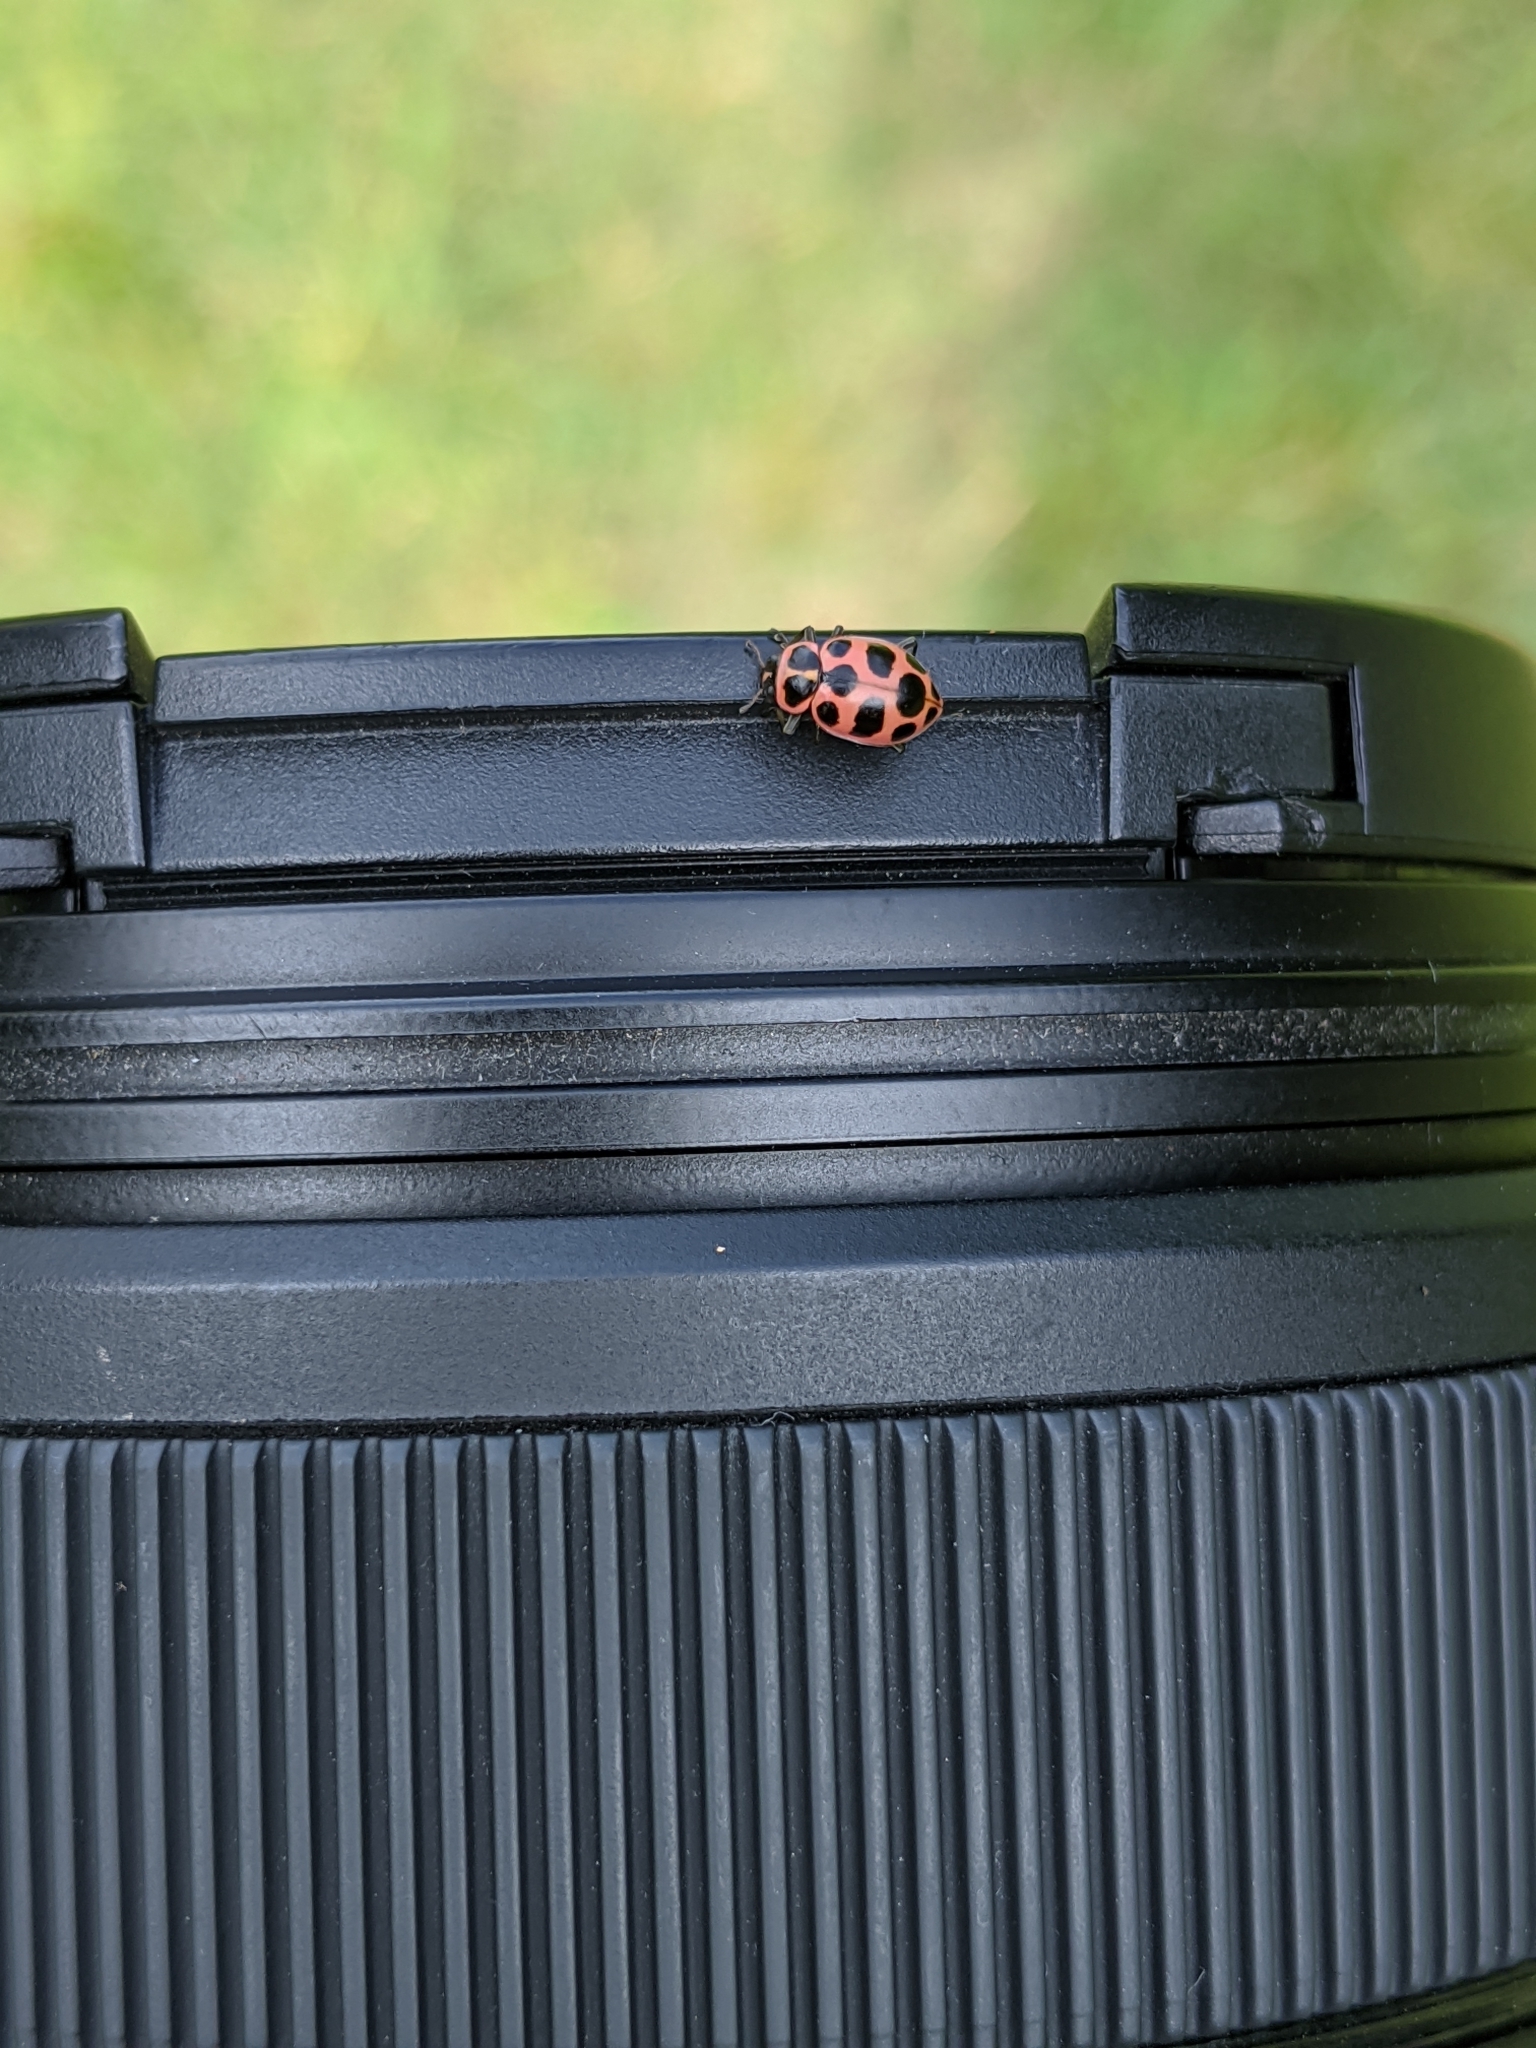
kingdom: Animalia
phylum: Arthropoda
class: Insecta
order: Coleoptera
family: Coccinellidae
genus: Coleomegilla
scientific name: Coleomegilla maculata
